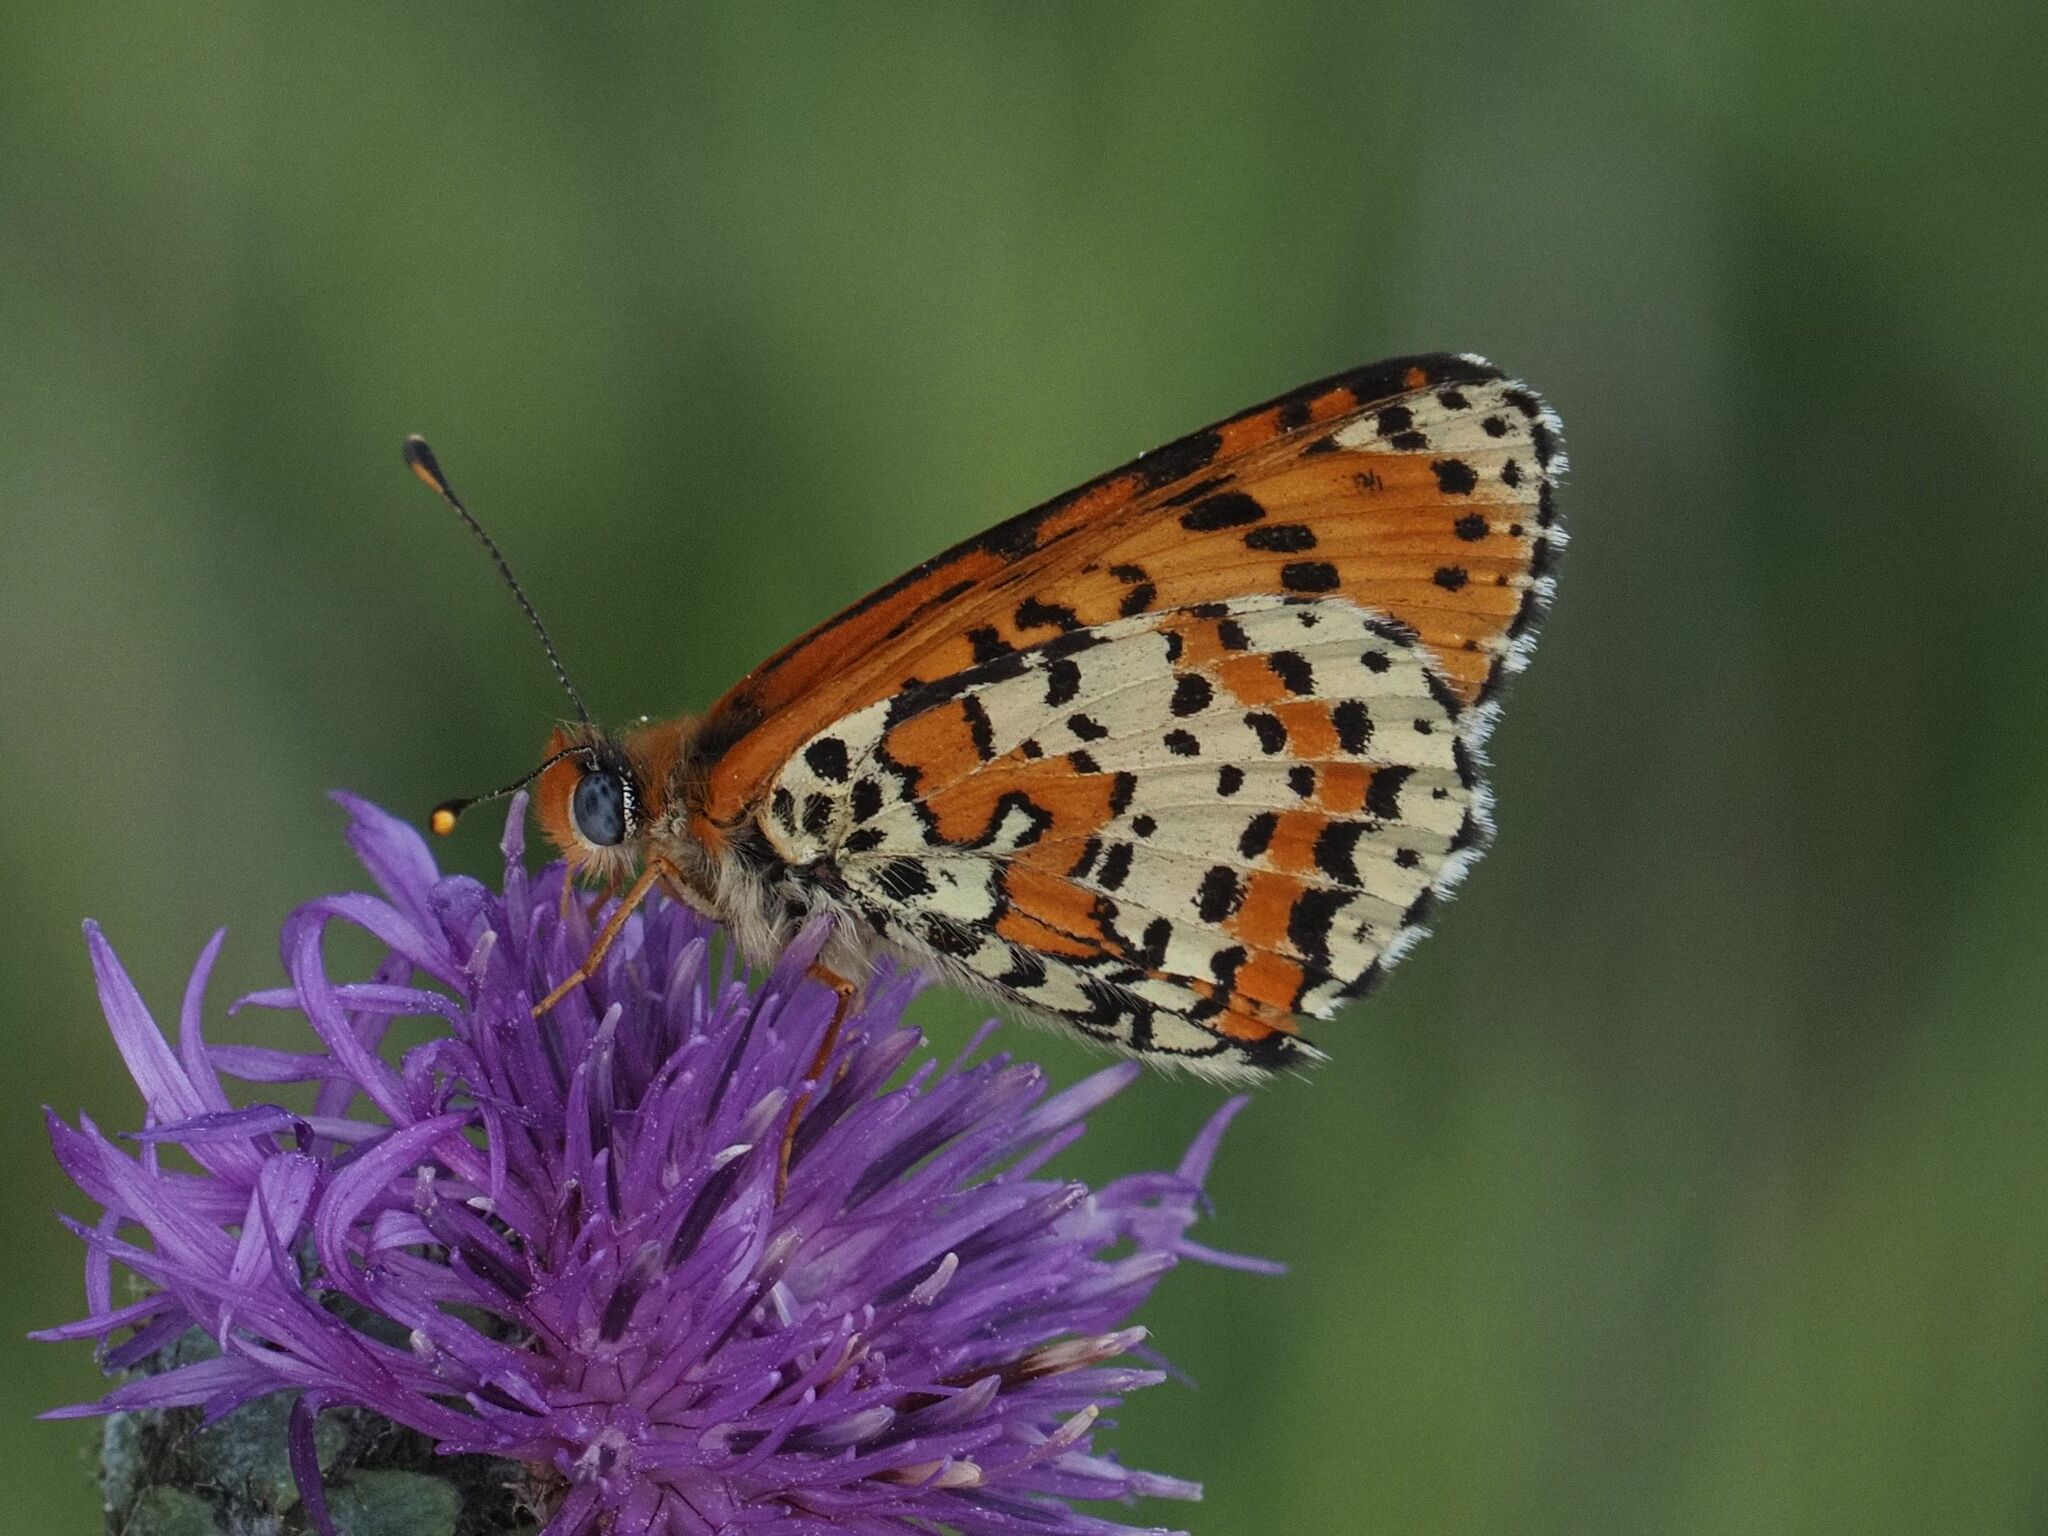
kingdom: Animalia
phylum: Arthropoda
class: Insecta
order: Lepidoptera
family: Nymphalidae
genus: Melitaea
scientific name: Melitaea didyma
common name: Spotted fritillary
